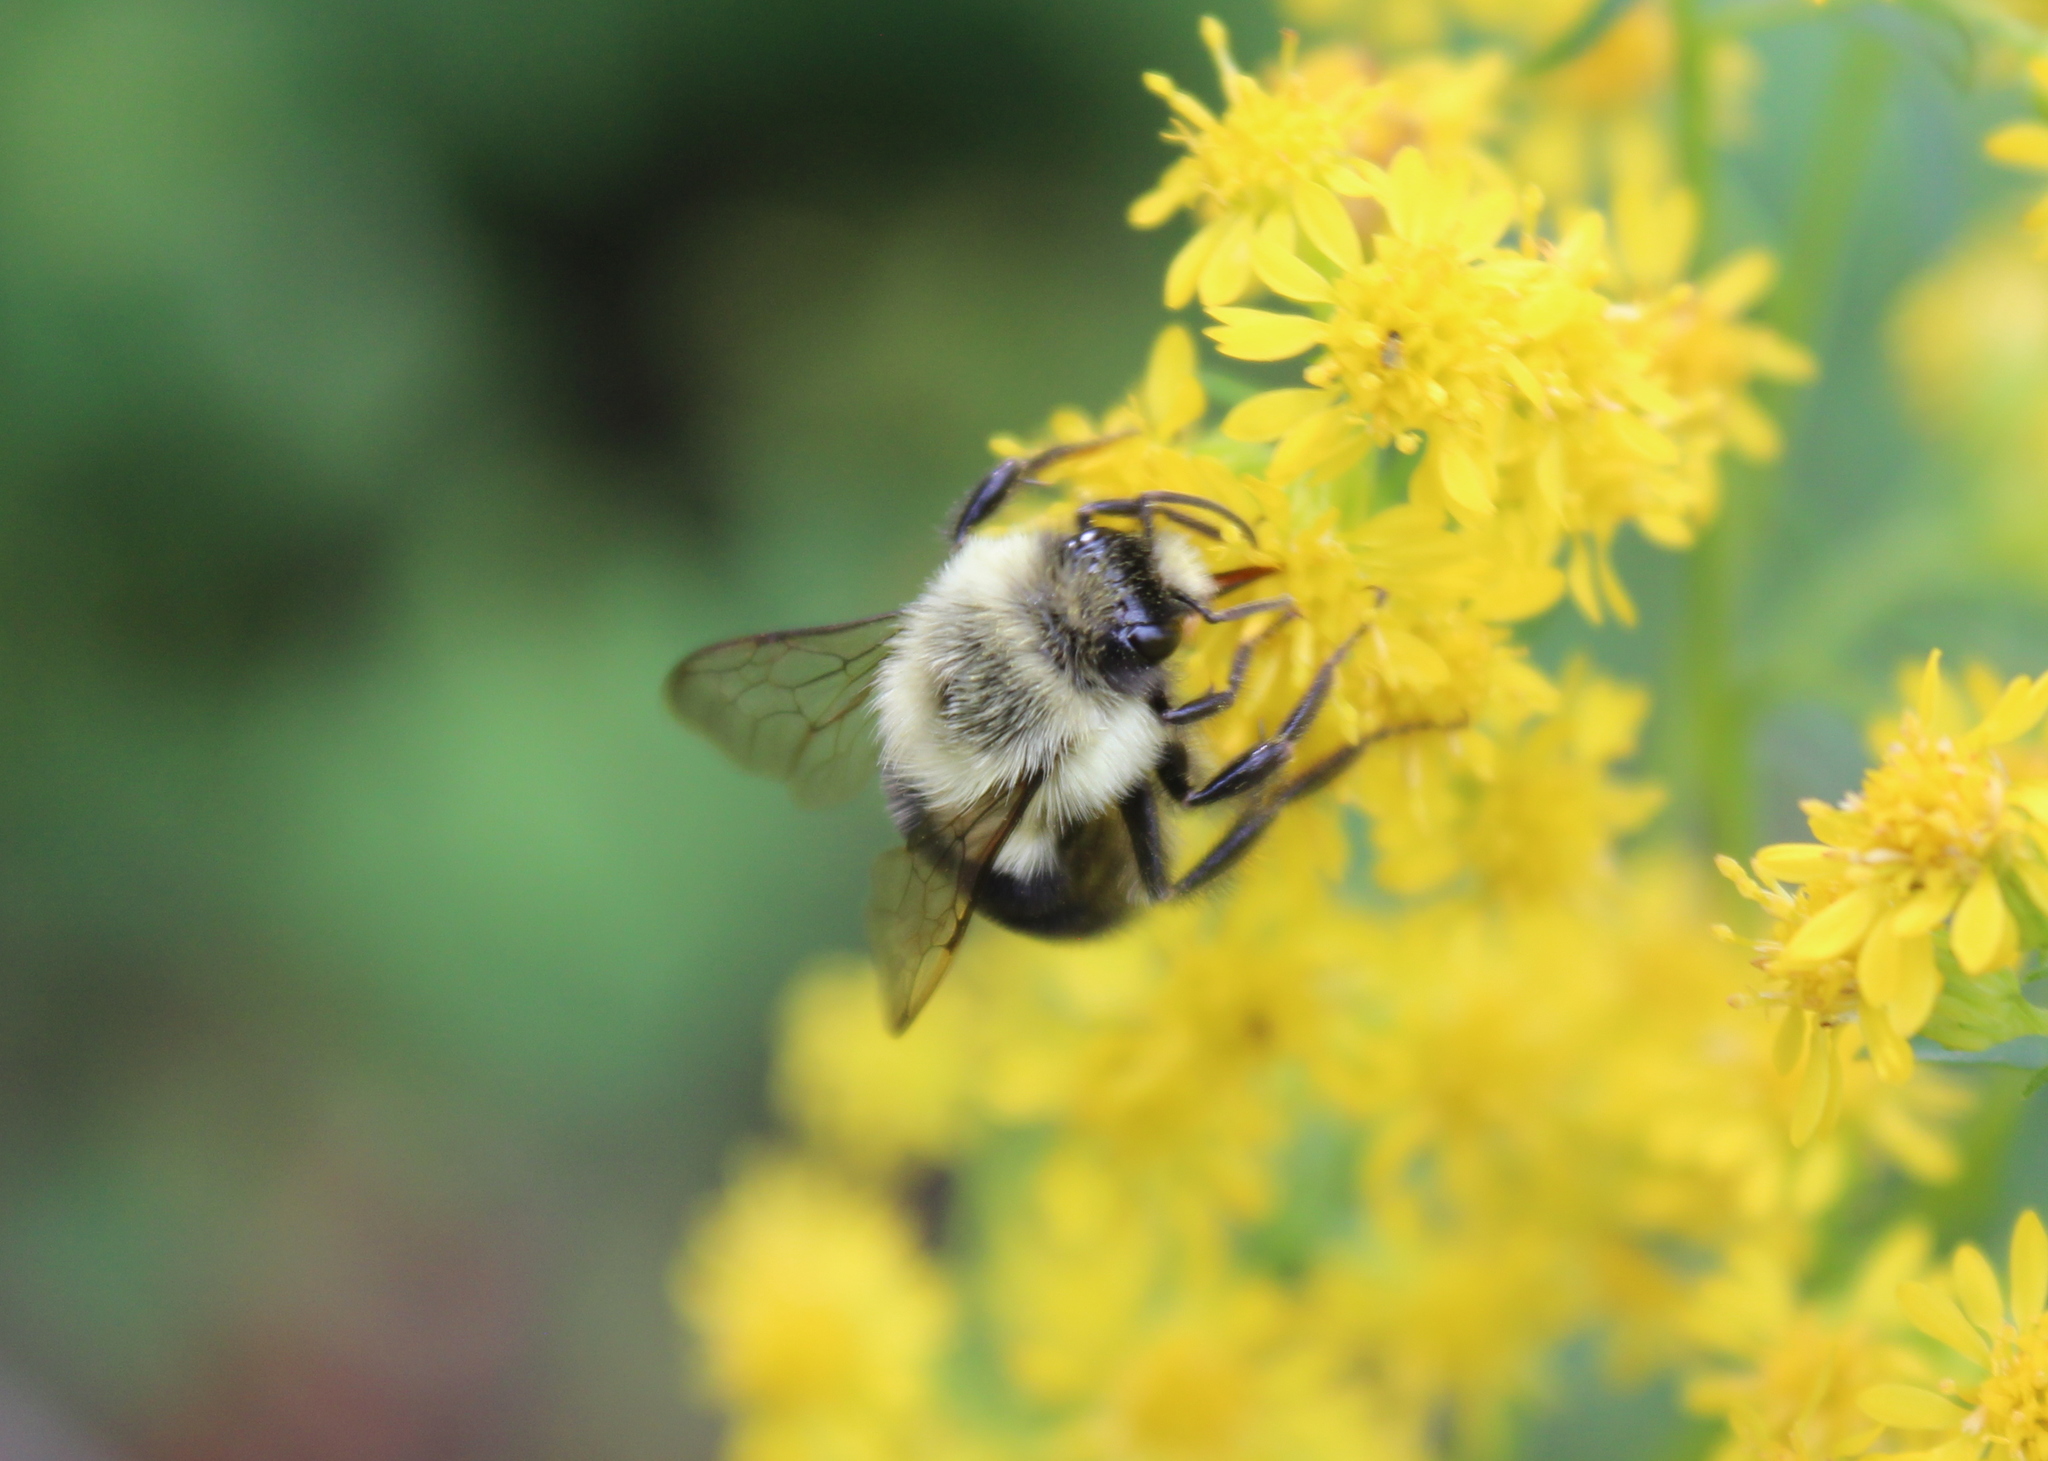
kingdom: Animalia
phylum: Arthropoda
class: Insecta
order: Hymenoptera
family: Apidae
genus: Bombus
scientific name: Bombus impatiens
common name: Common eastern bumble bee
